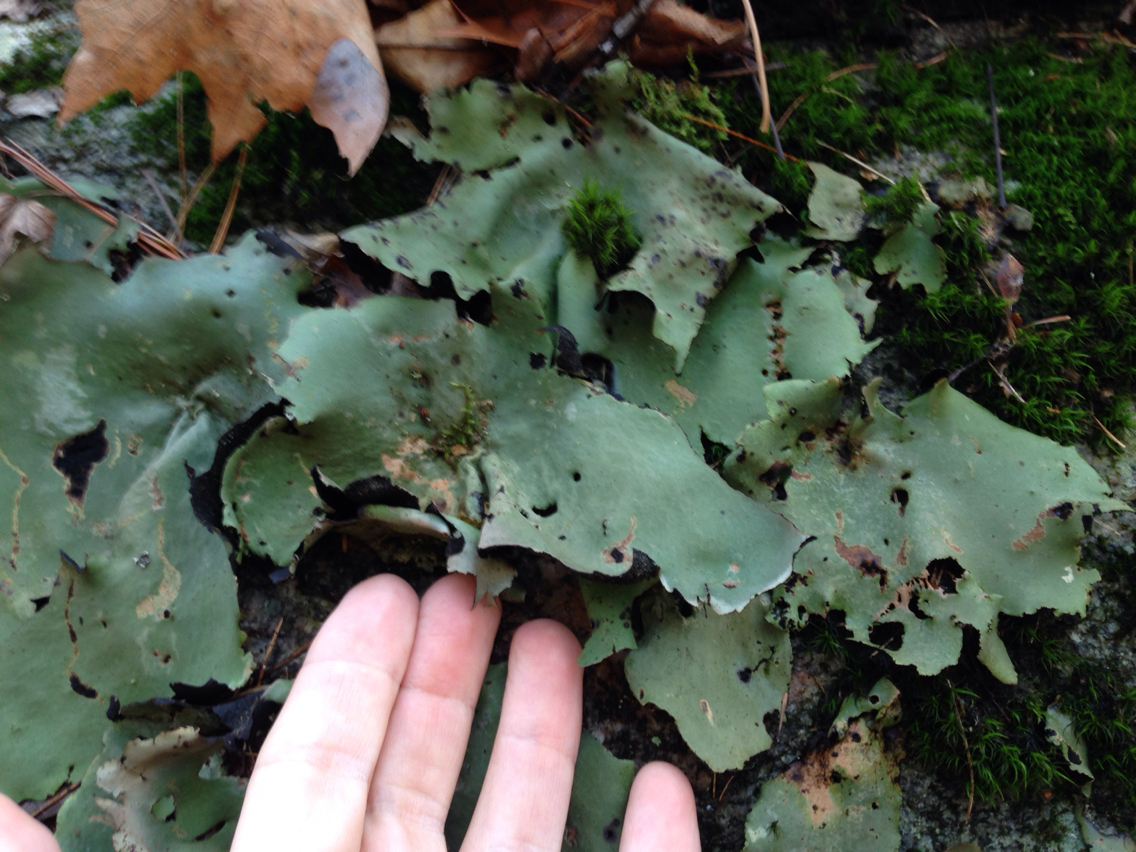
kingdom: Fungi
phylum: Ascomycota
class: Lecanoromycetes
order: Umbilicariales
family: Umbilicariaceae
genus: Umbilicaria
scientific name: Umbilicaria mammulata
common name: Smooth rock tripe
